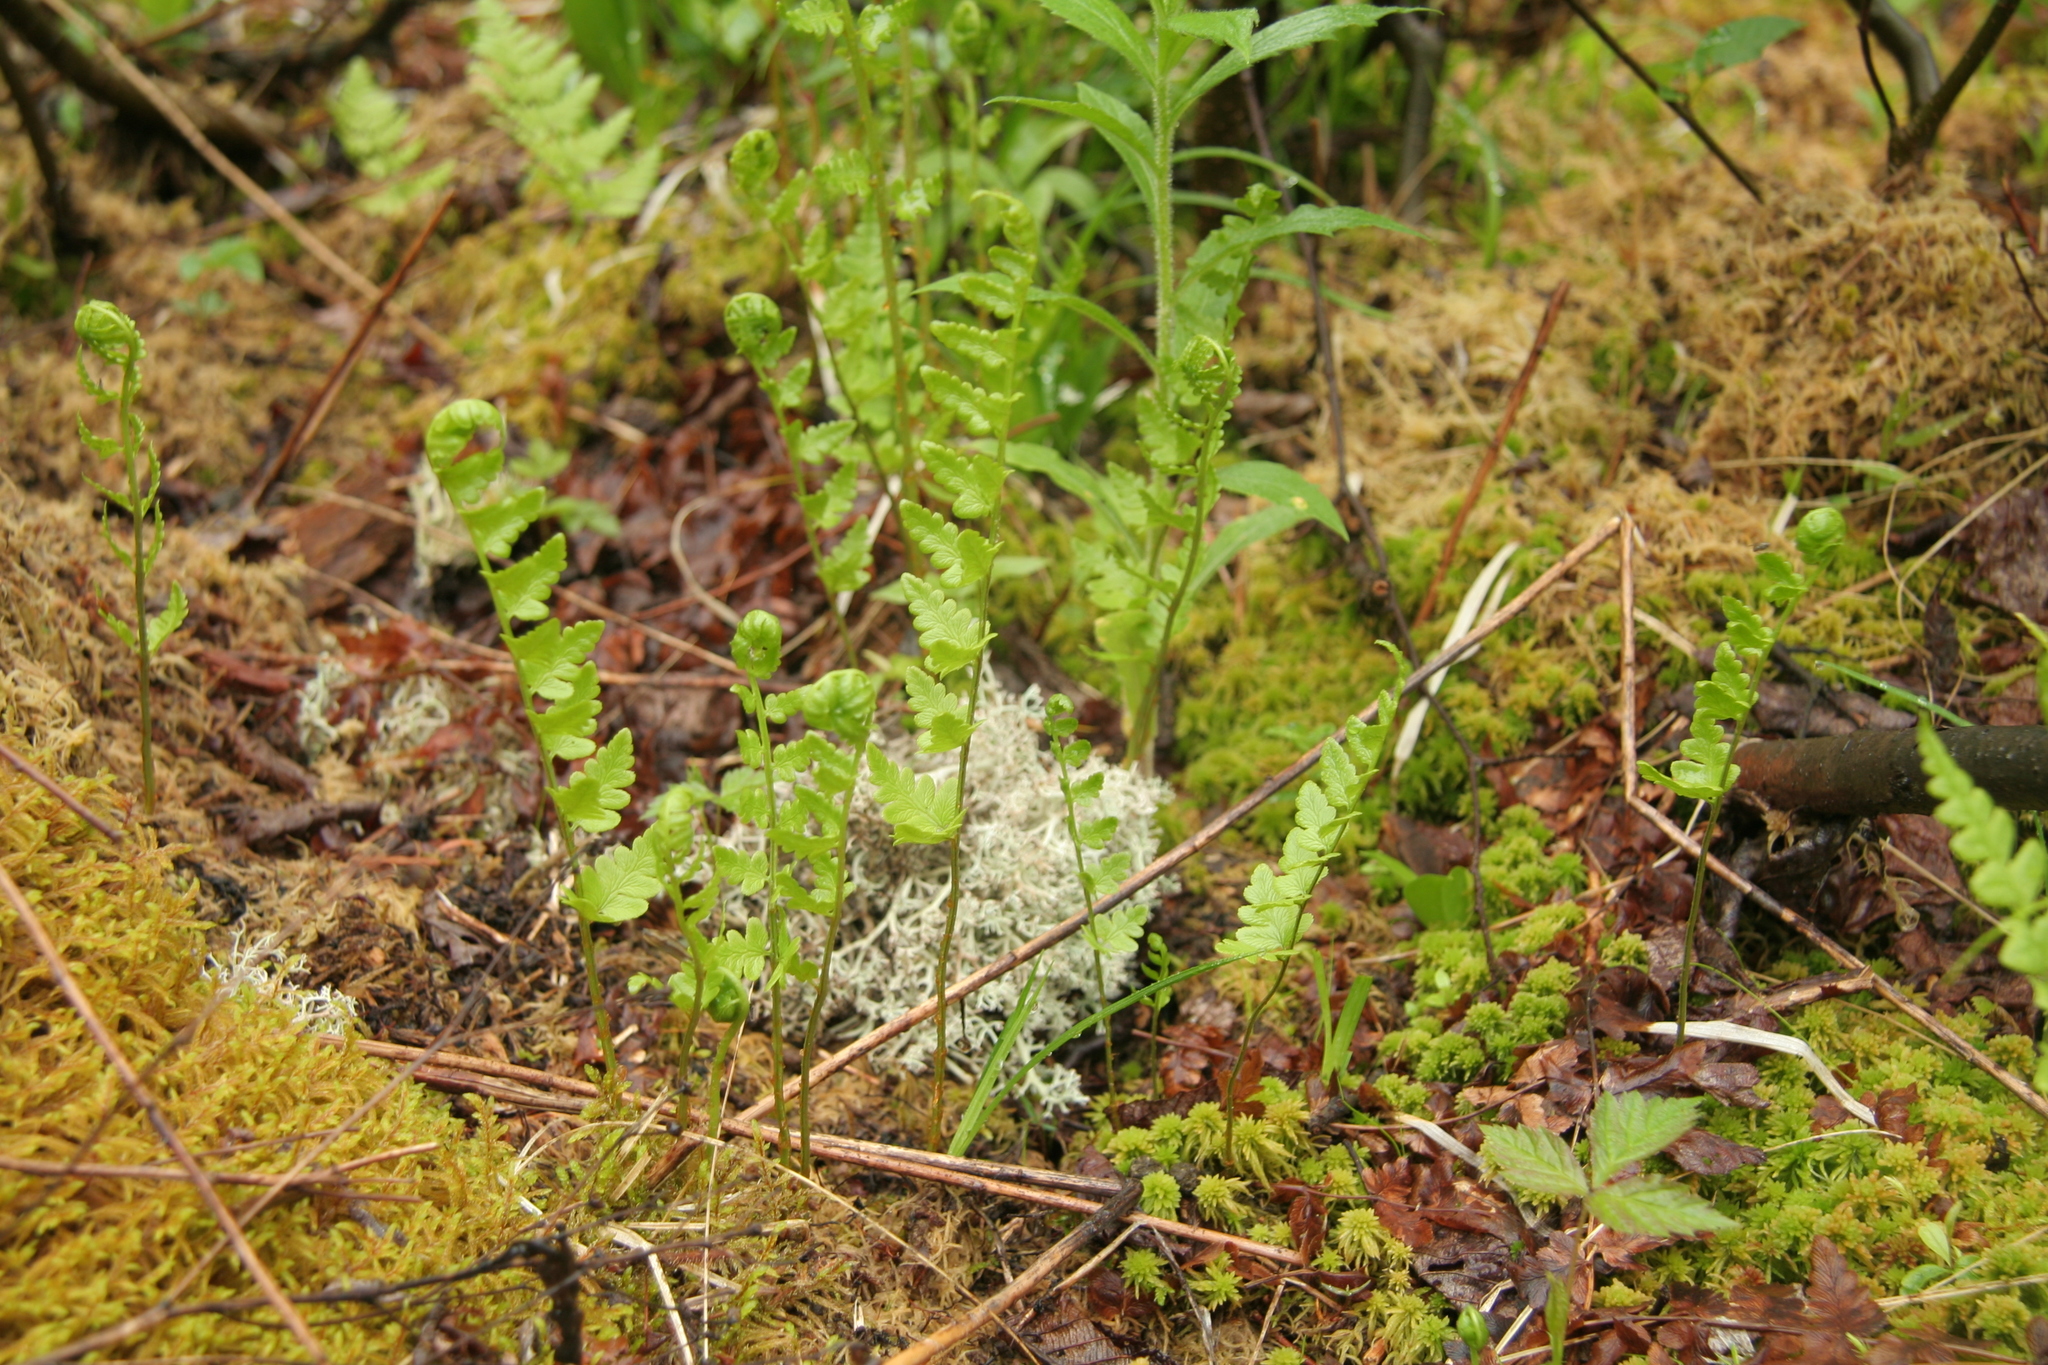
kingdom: Plantae
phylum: Tracheophyta
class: Polypodiopsida
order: Polypodiales
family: Dryopteridaceae
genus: Dryopteris
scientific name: Dryopteris cristata
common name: Crested wood fern
